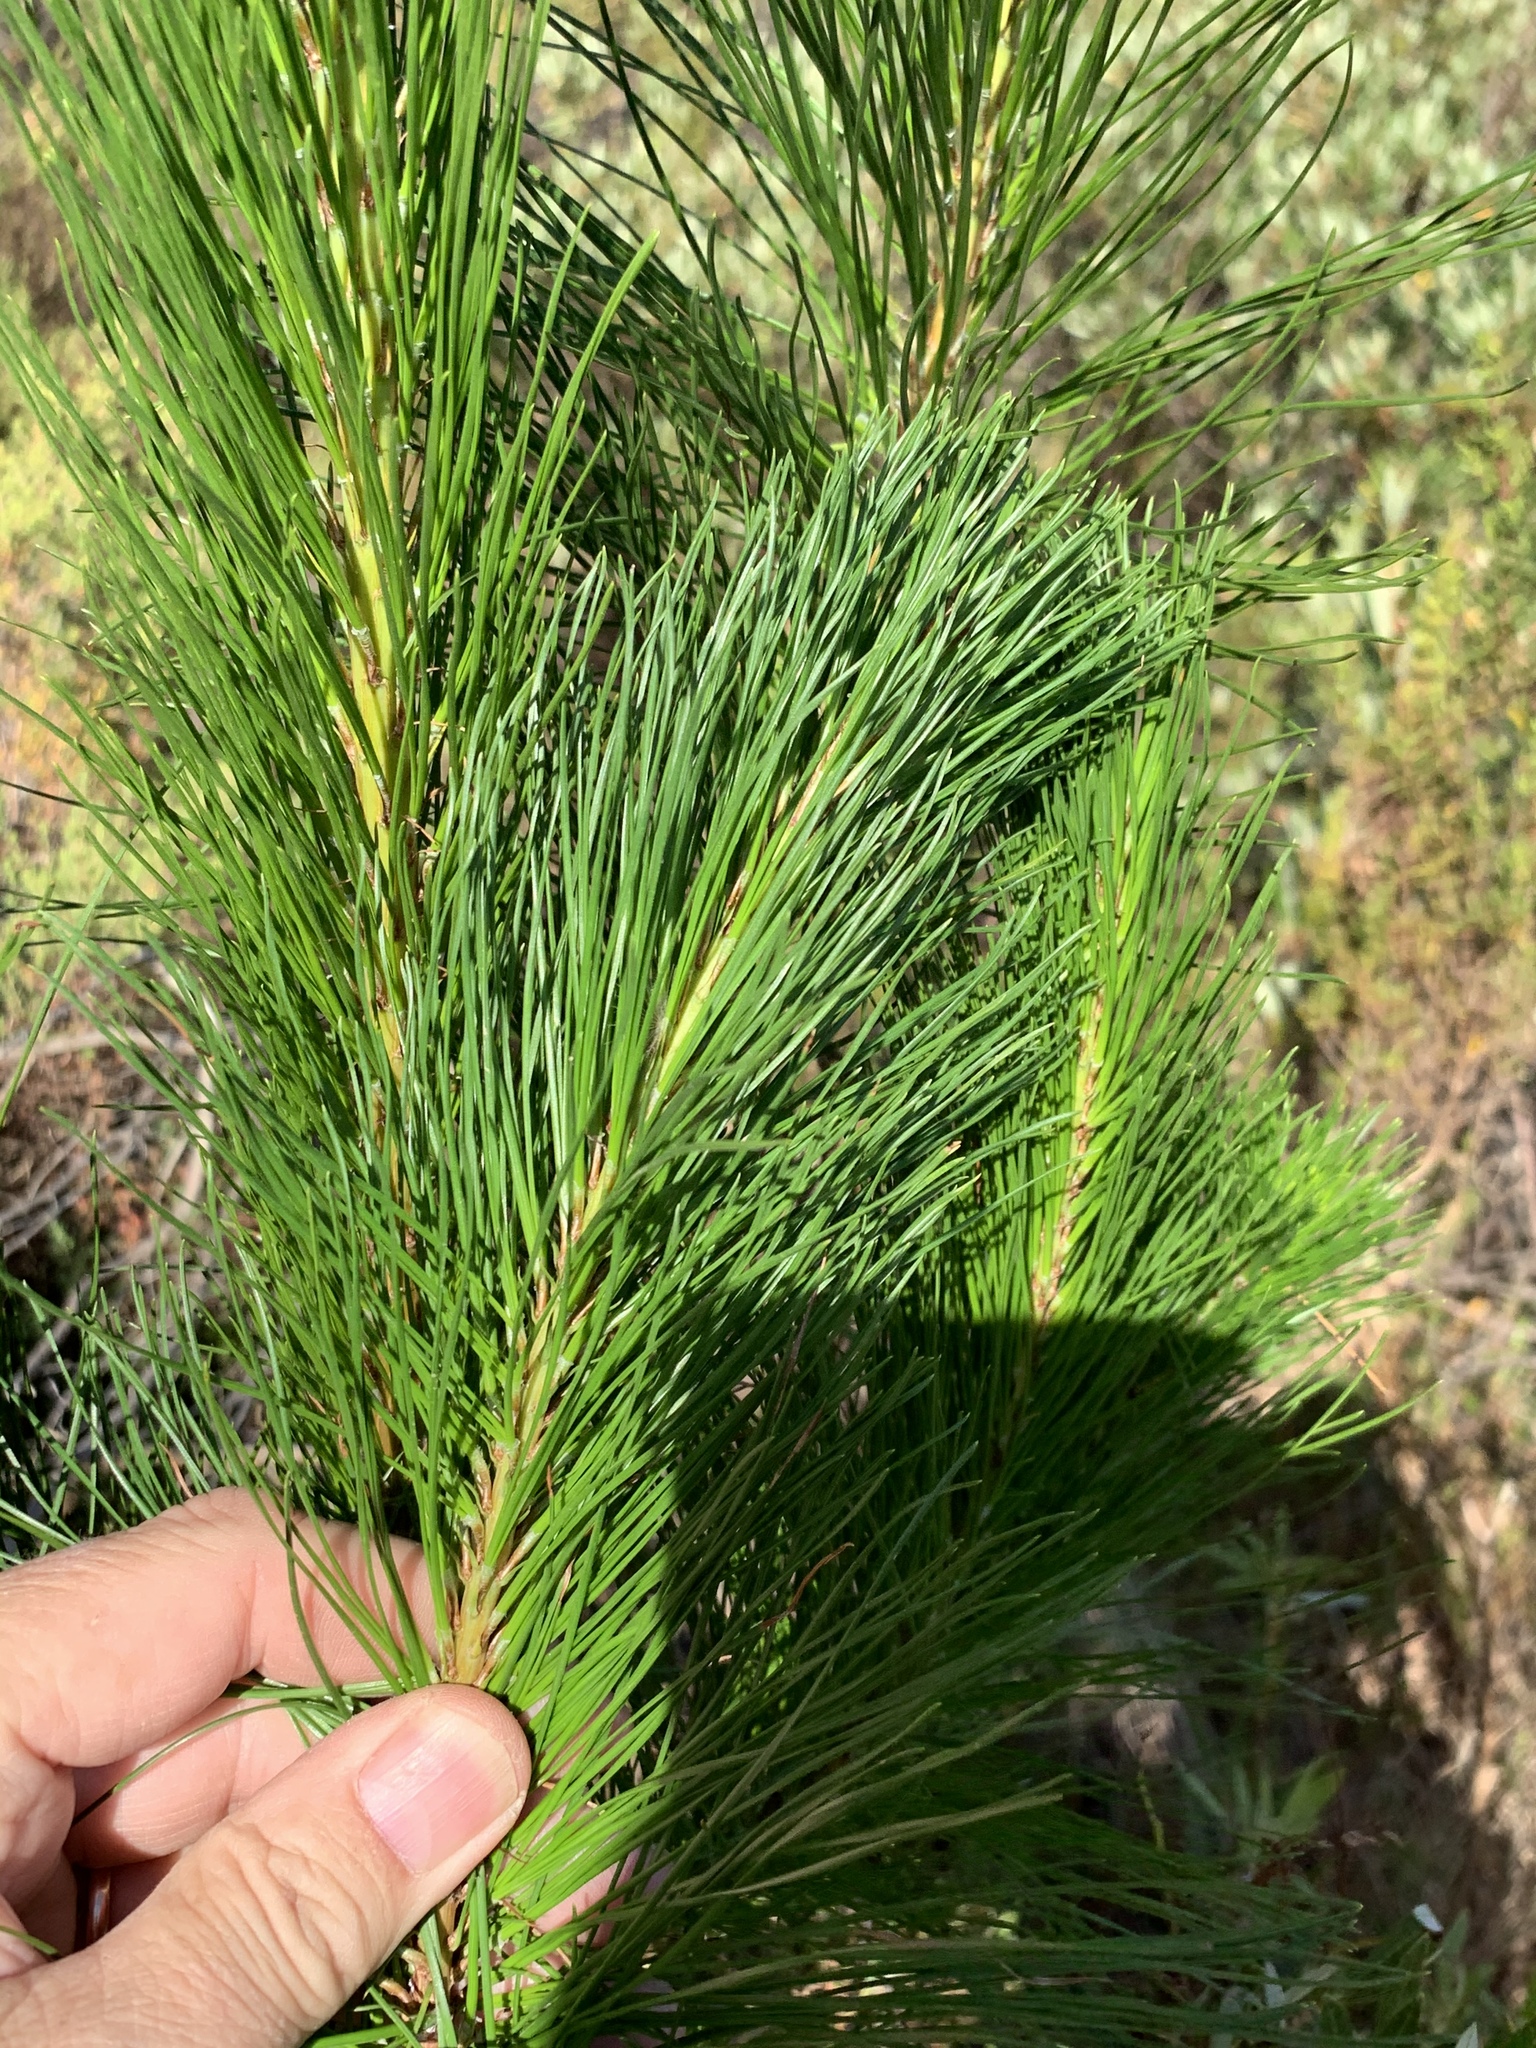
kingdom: Plantae
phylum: Tracheophyta
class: Pinopsida
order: Pinales
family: Pinaceae
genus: Pinus
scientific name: Pinus radiata
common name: Monterey pine
